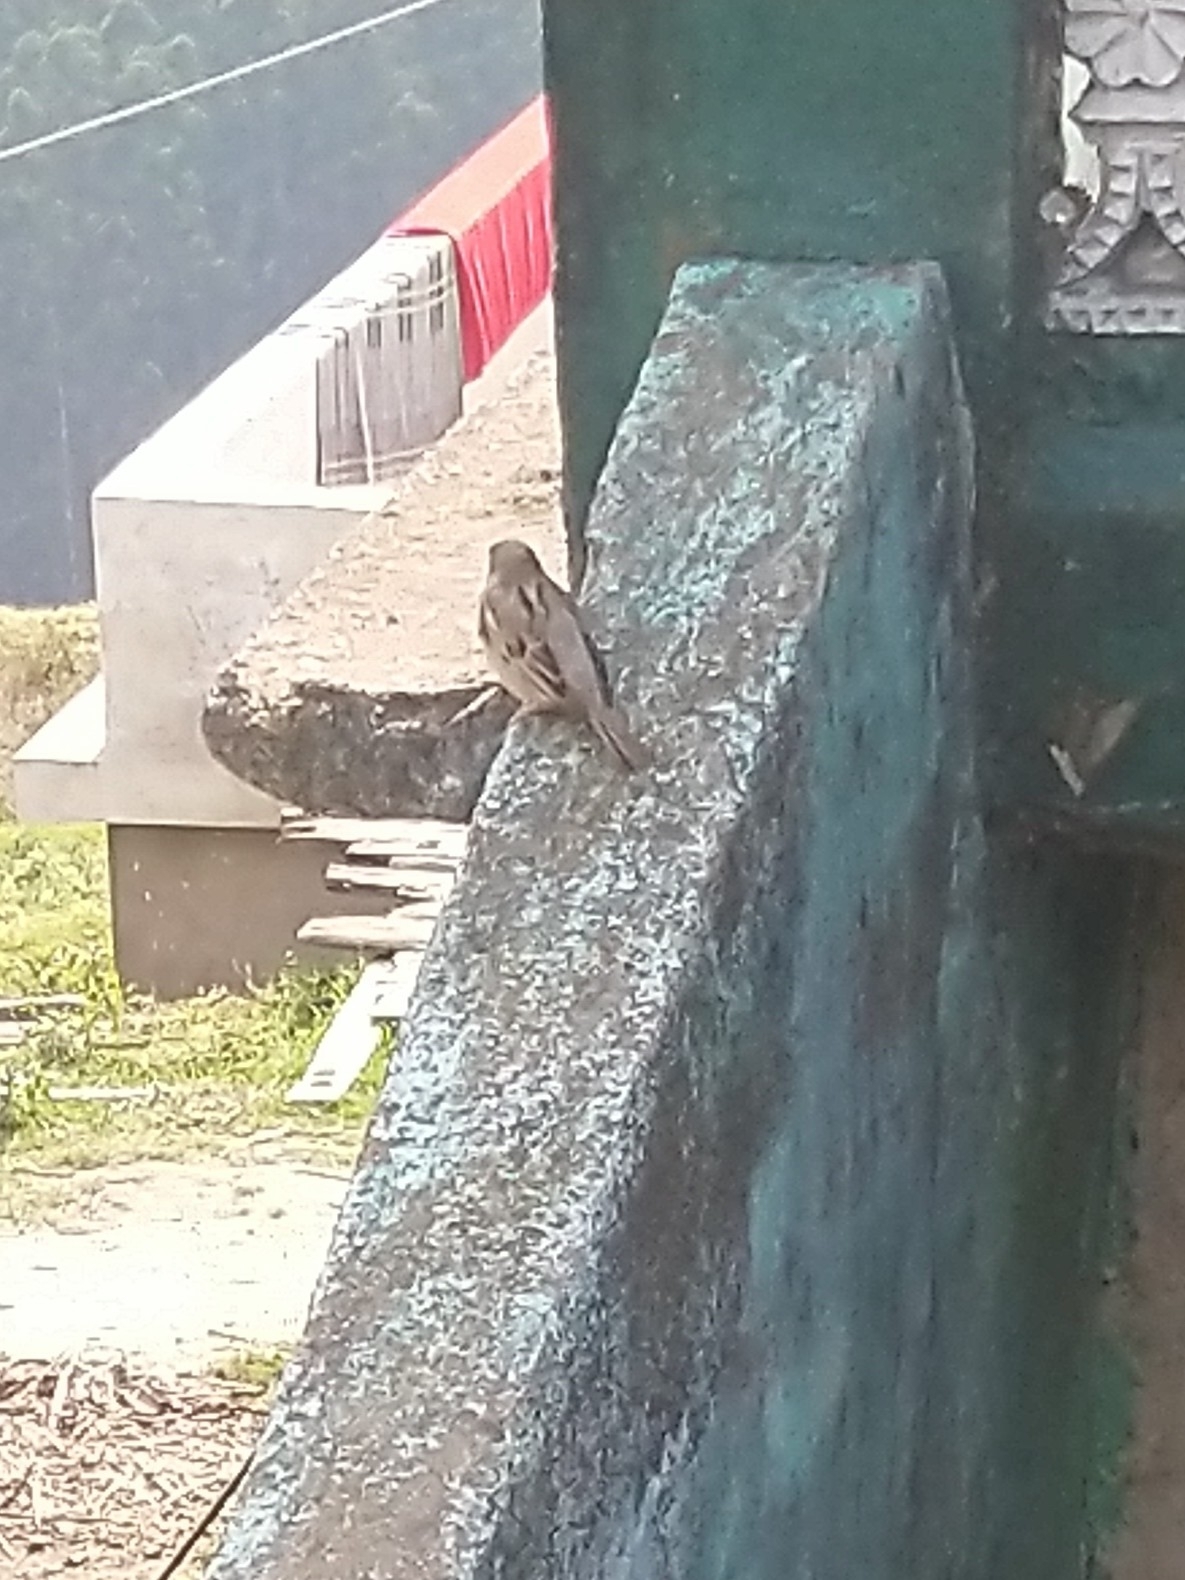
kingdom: Animalia
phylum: Chordata
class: Aves
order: Passeriformes
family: Passeridae
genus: Passer
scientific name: Passer domesticus
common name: House sparrow
